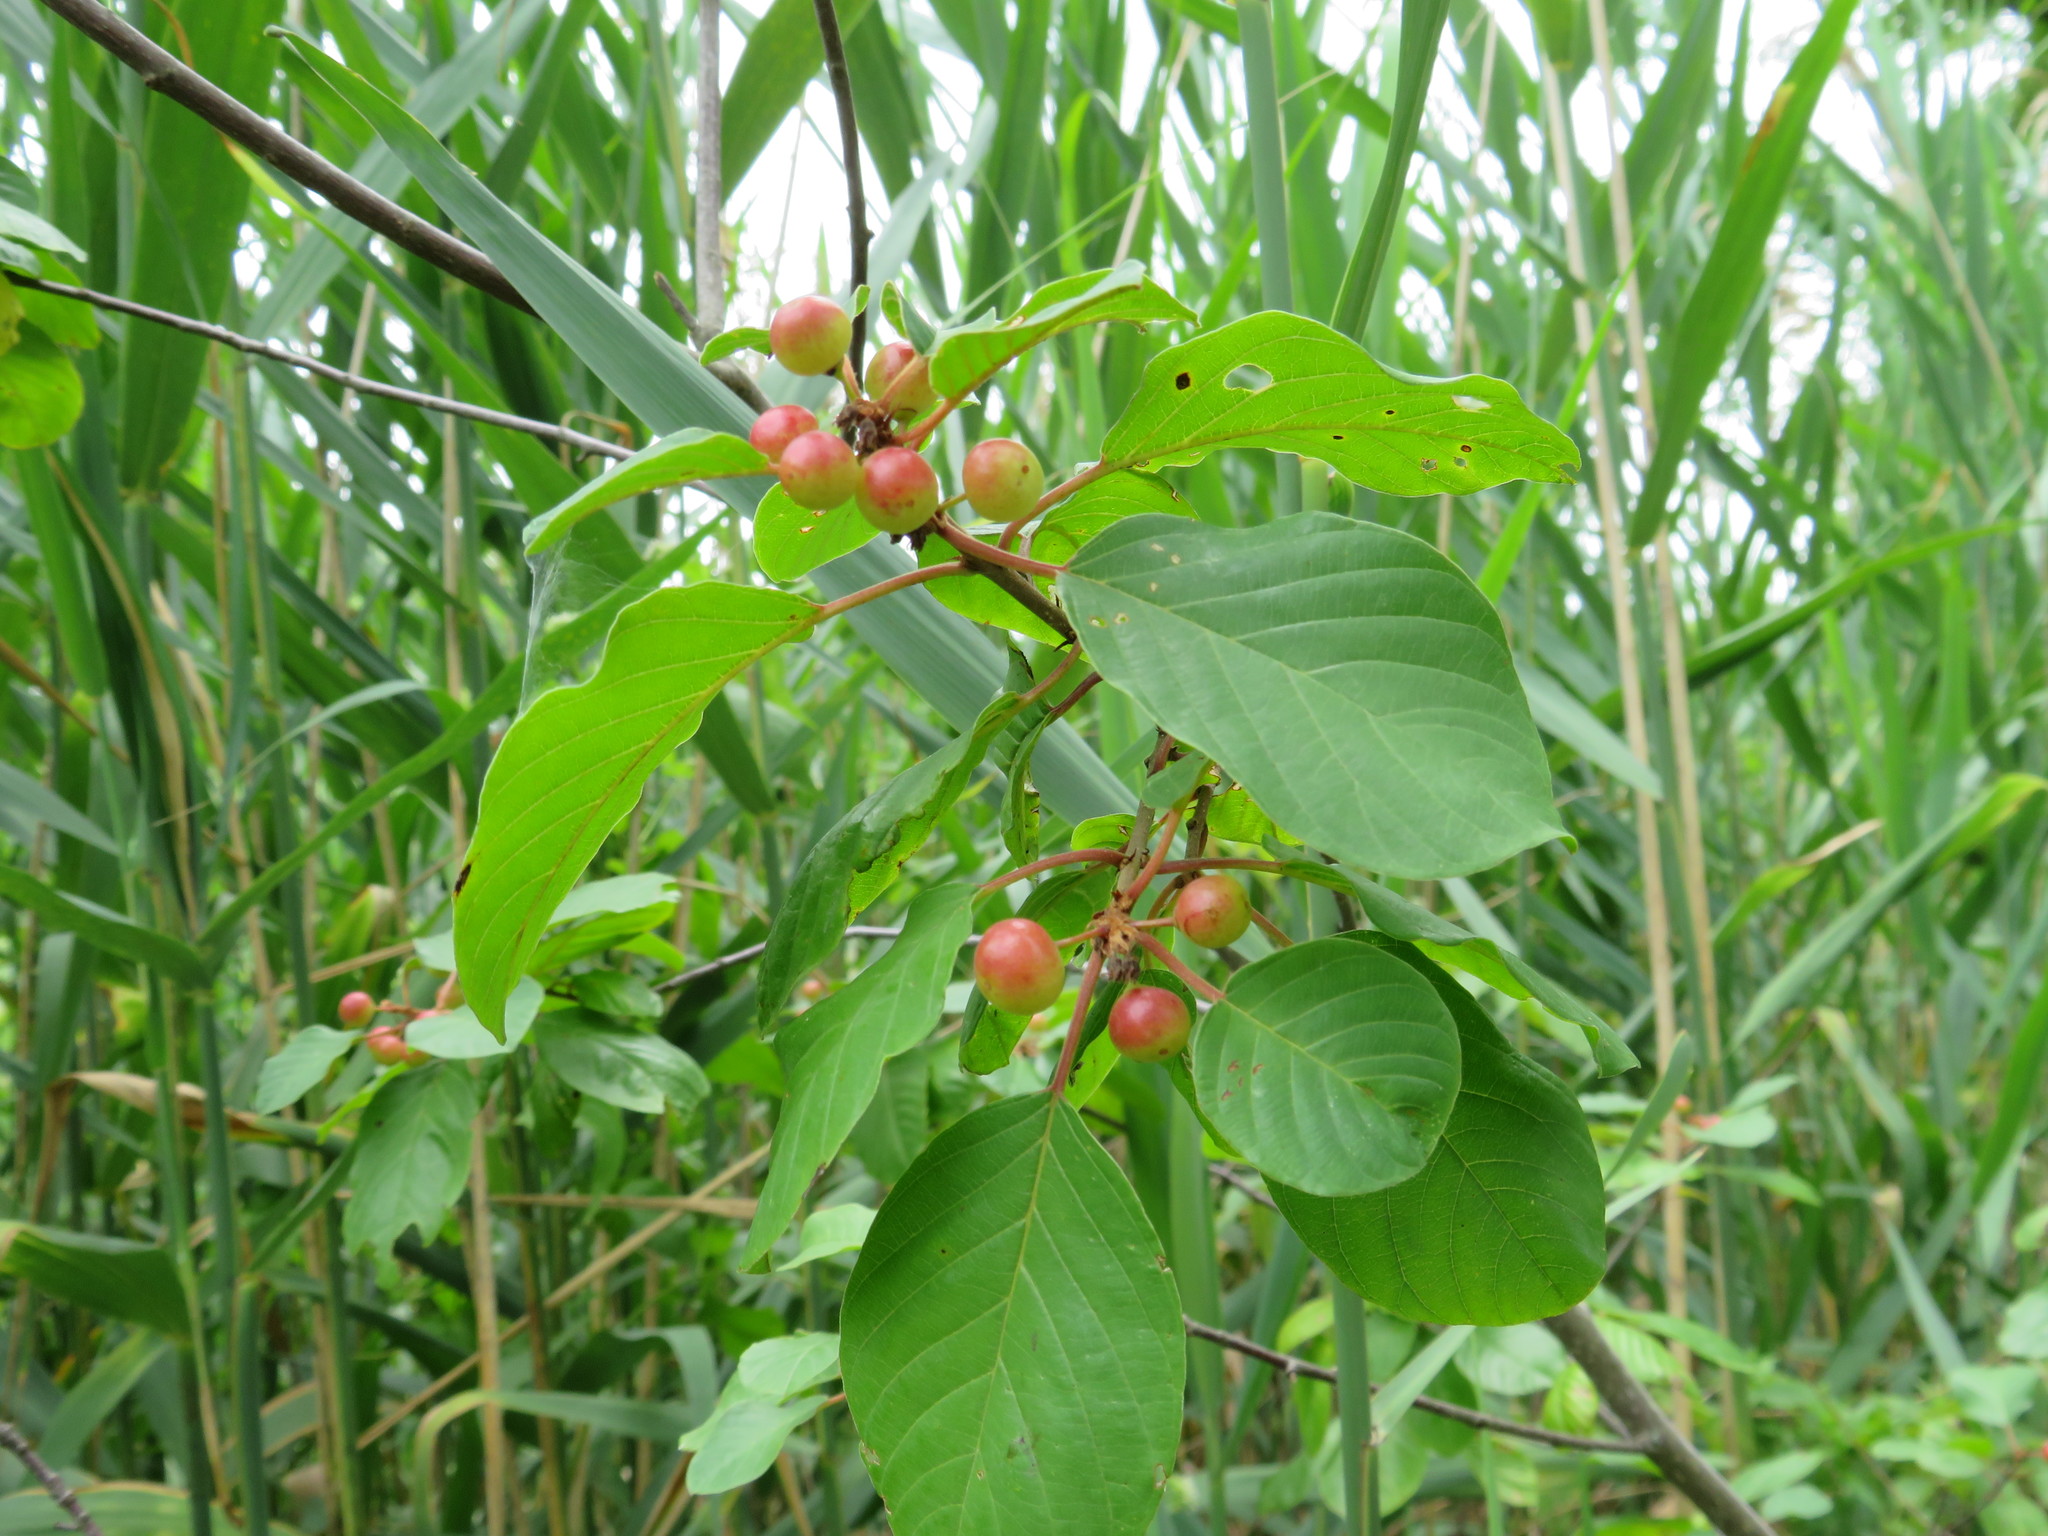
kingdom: Plantae
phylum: Tracheophyta
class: Magnoliopsida
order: Rosales
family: Rhamnaceae
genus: Frangula
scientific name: Frangula alnus
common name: Alder buckthorn
